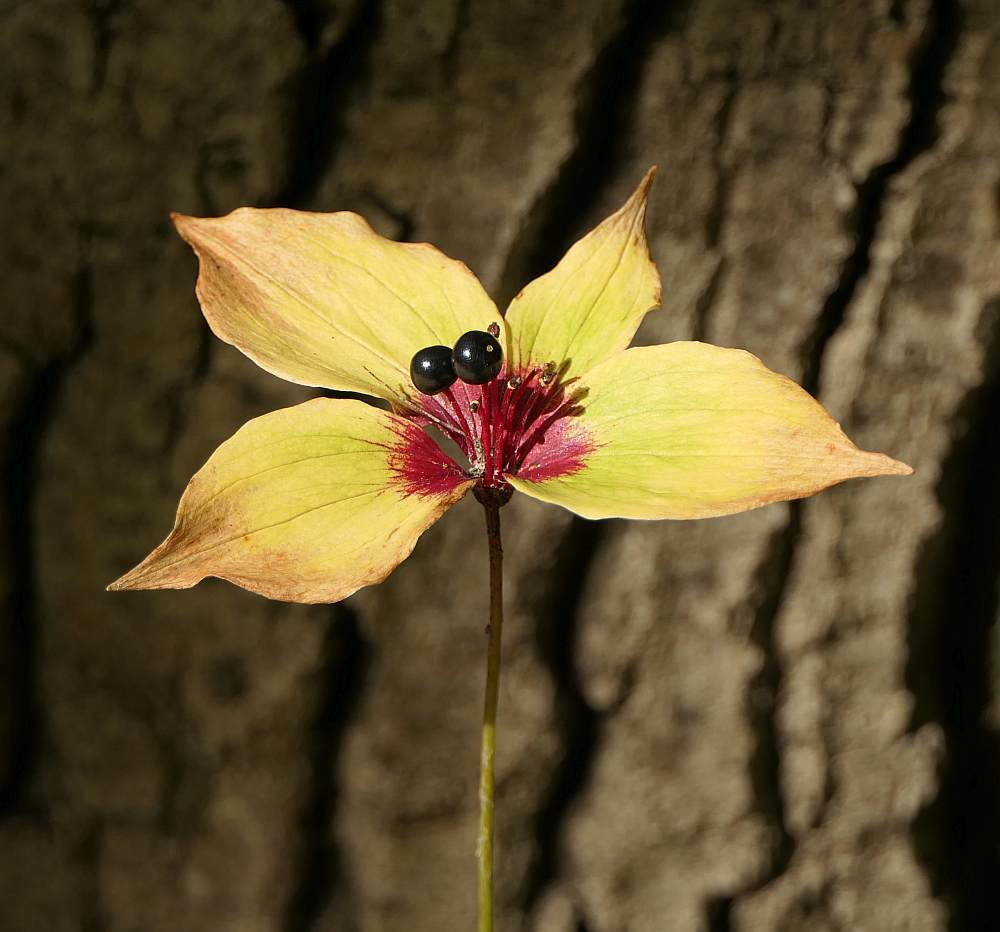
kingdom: Plantae
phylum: Tracheophyta
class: Liliopsida
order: Liliales
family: Liliaceae
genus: Medeola
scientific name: Medeola virginiana
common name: Indian cucumber-root
